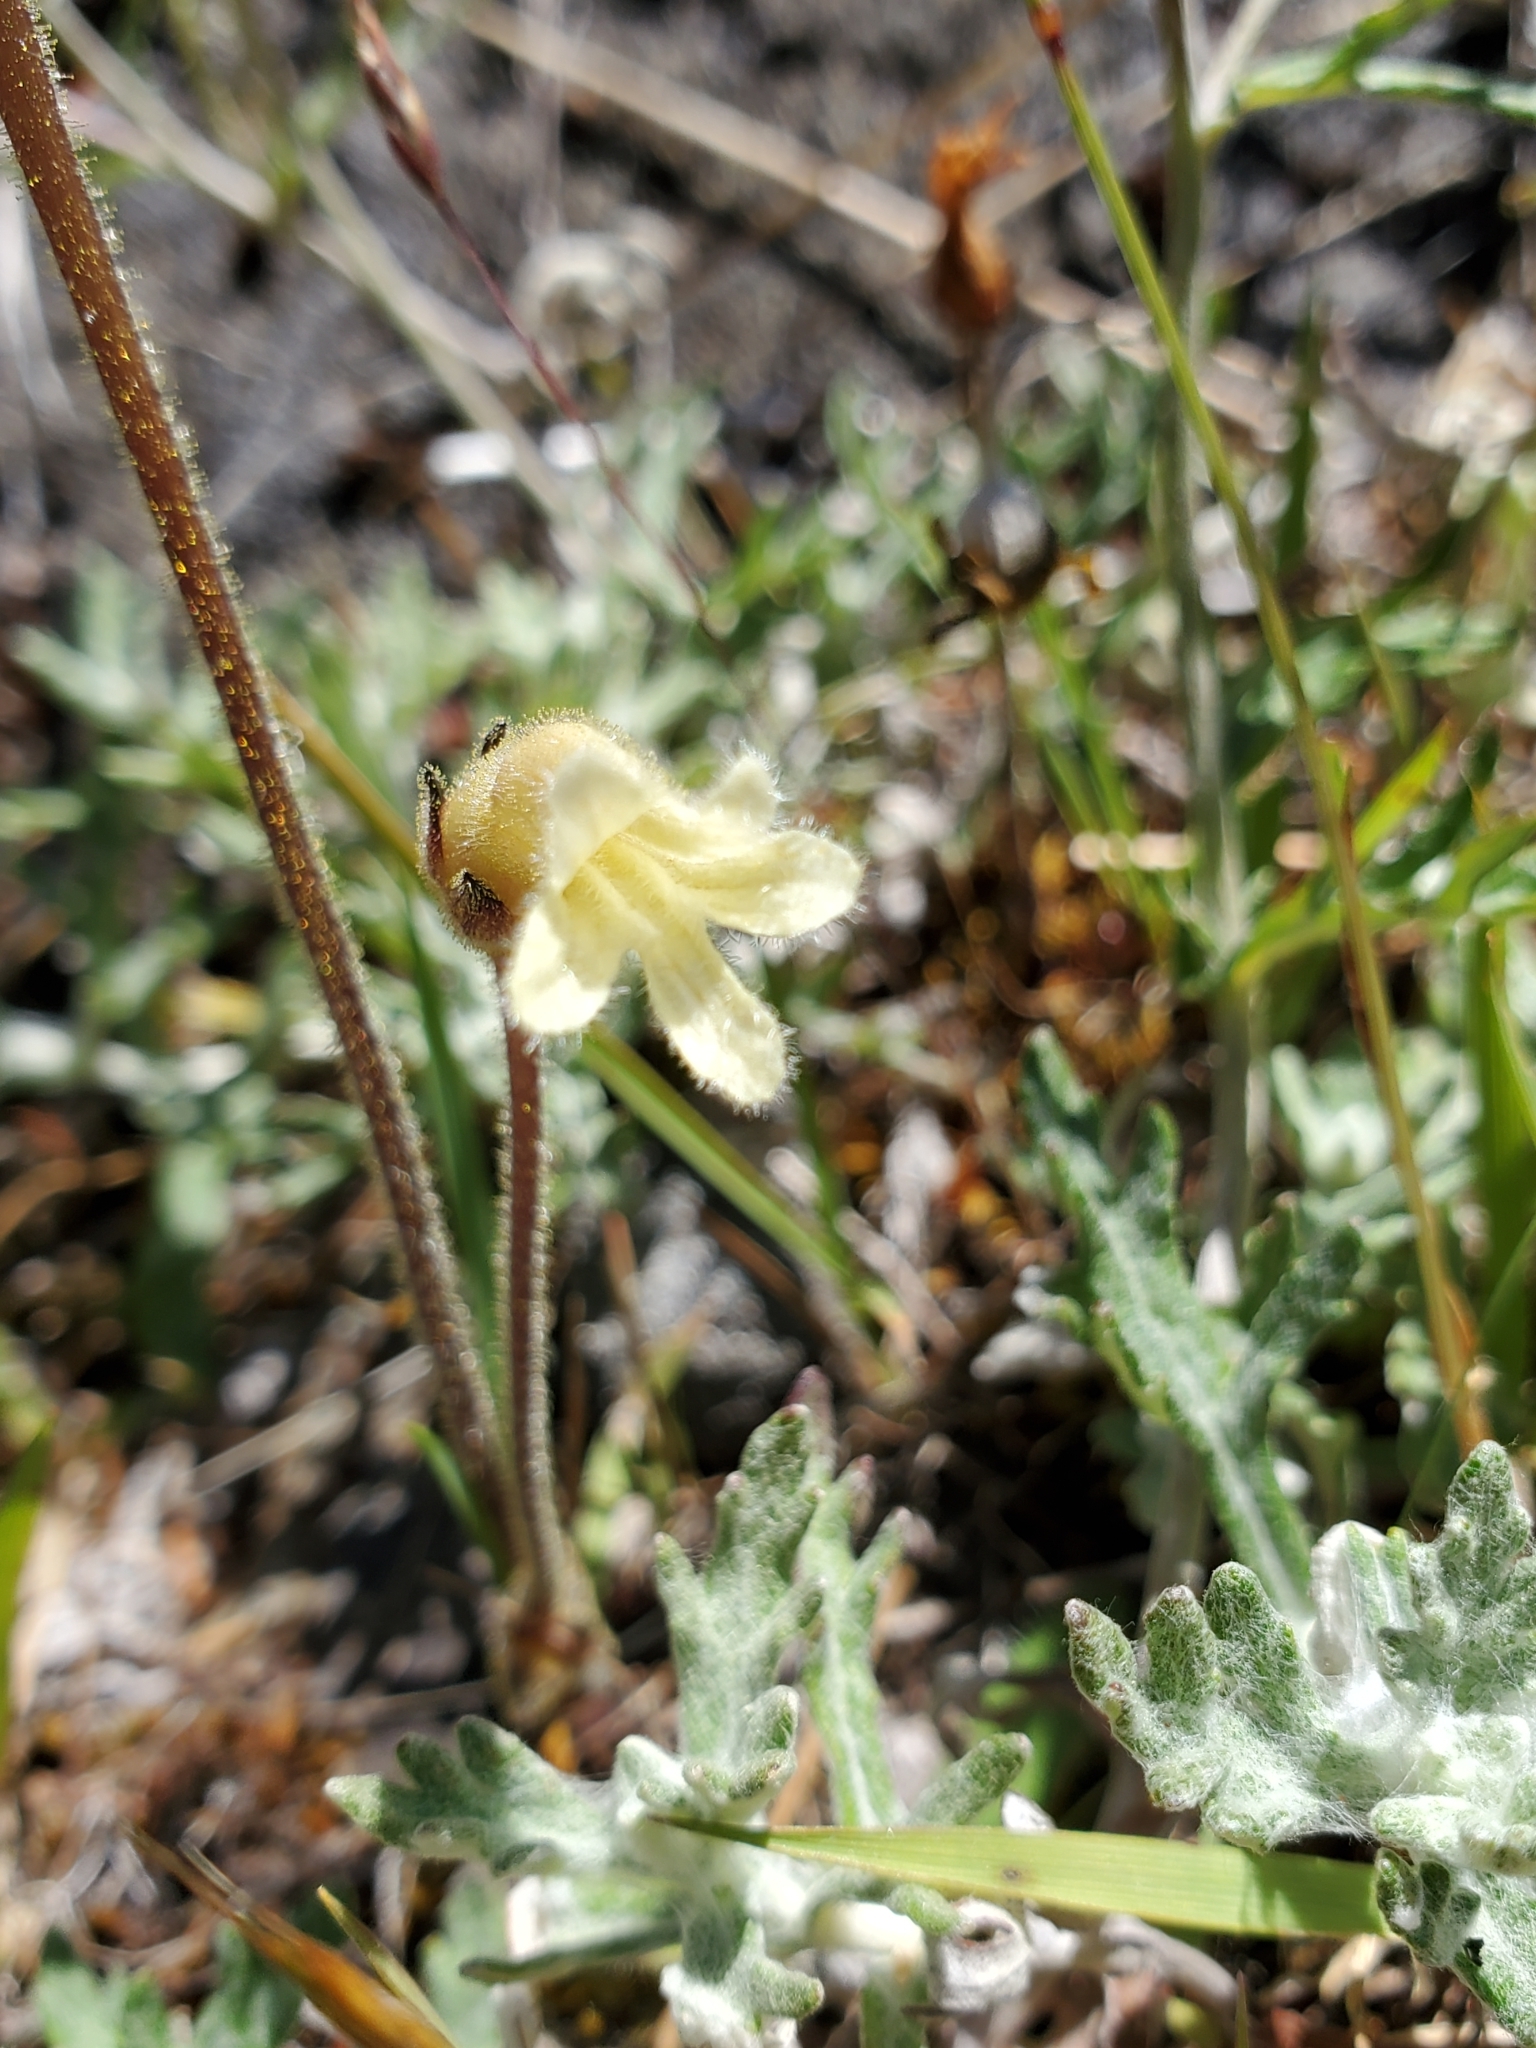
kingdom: Plantae
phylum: Tracheophyta
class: Magnoliopsida
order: Lamiales
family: Orobanchaceae
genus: Aphyllon
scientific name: Aphyllon franciscanum
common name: San francisco broomrape
